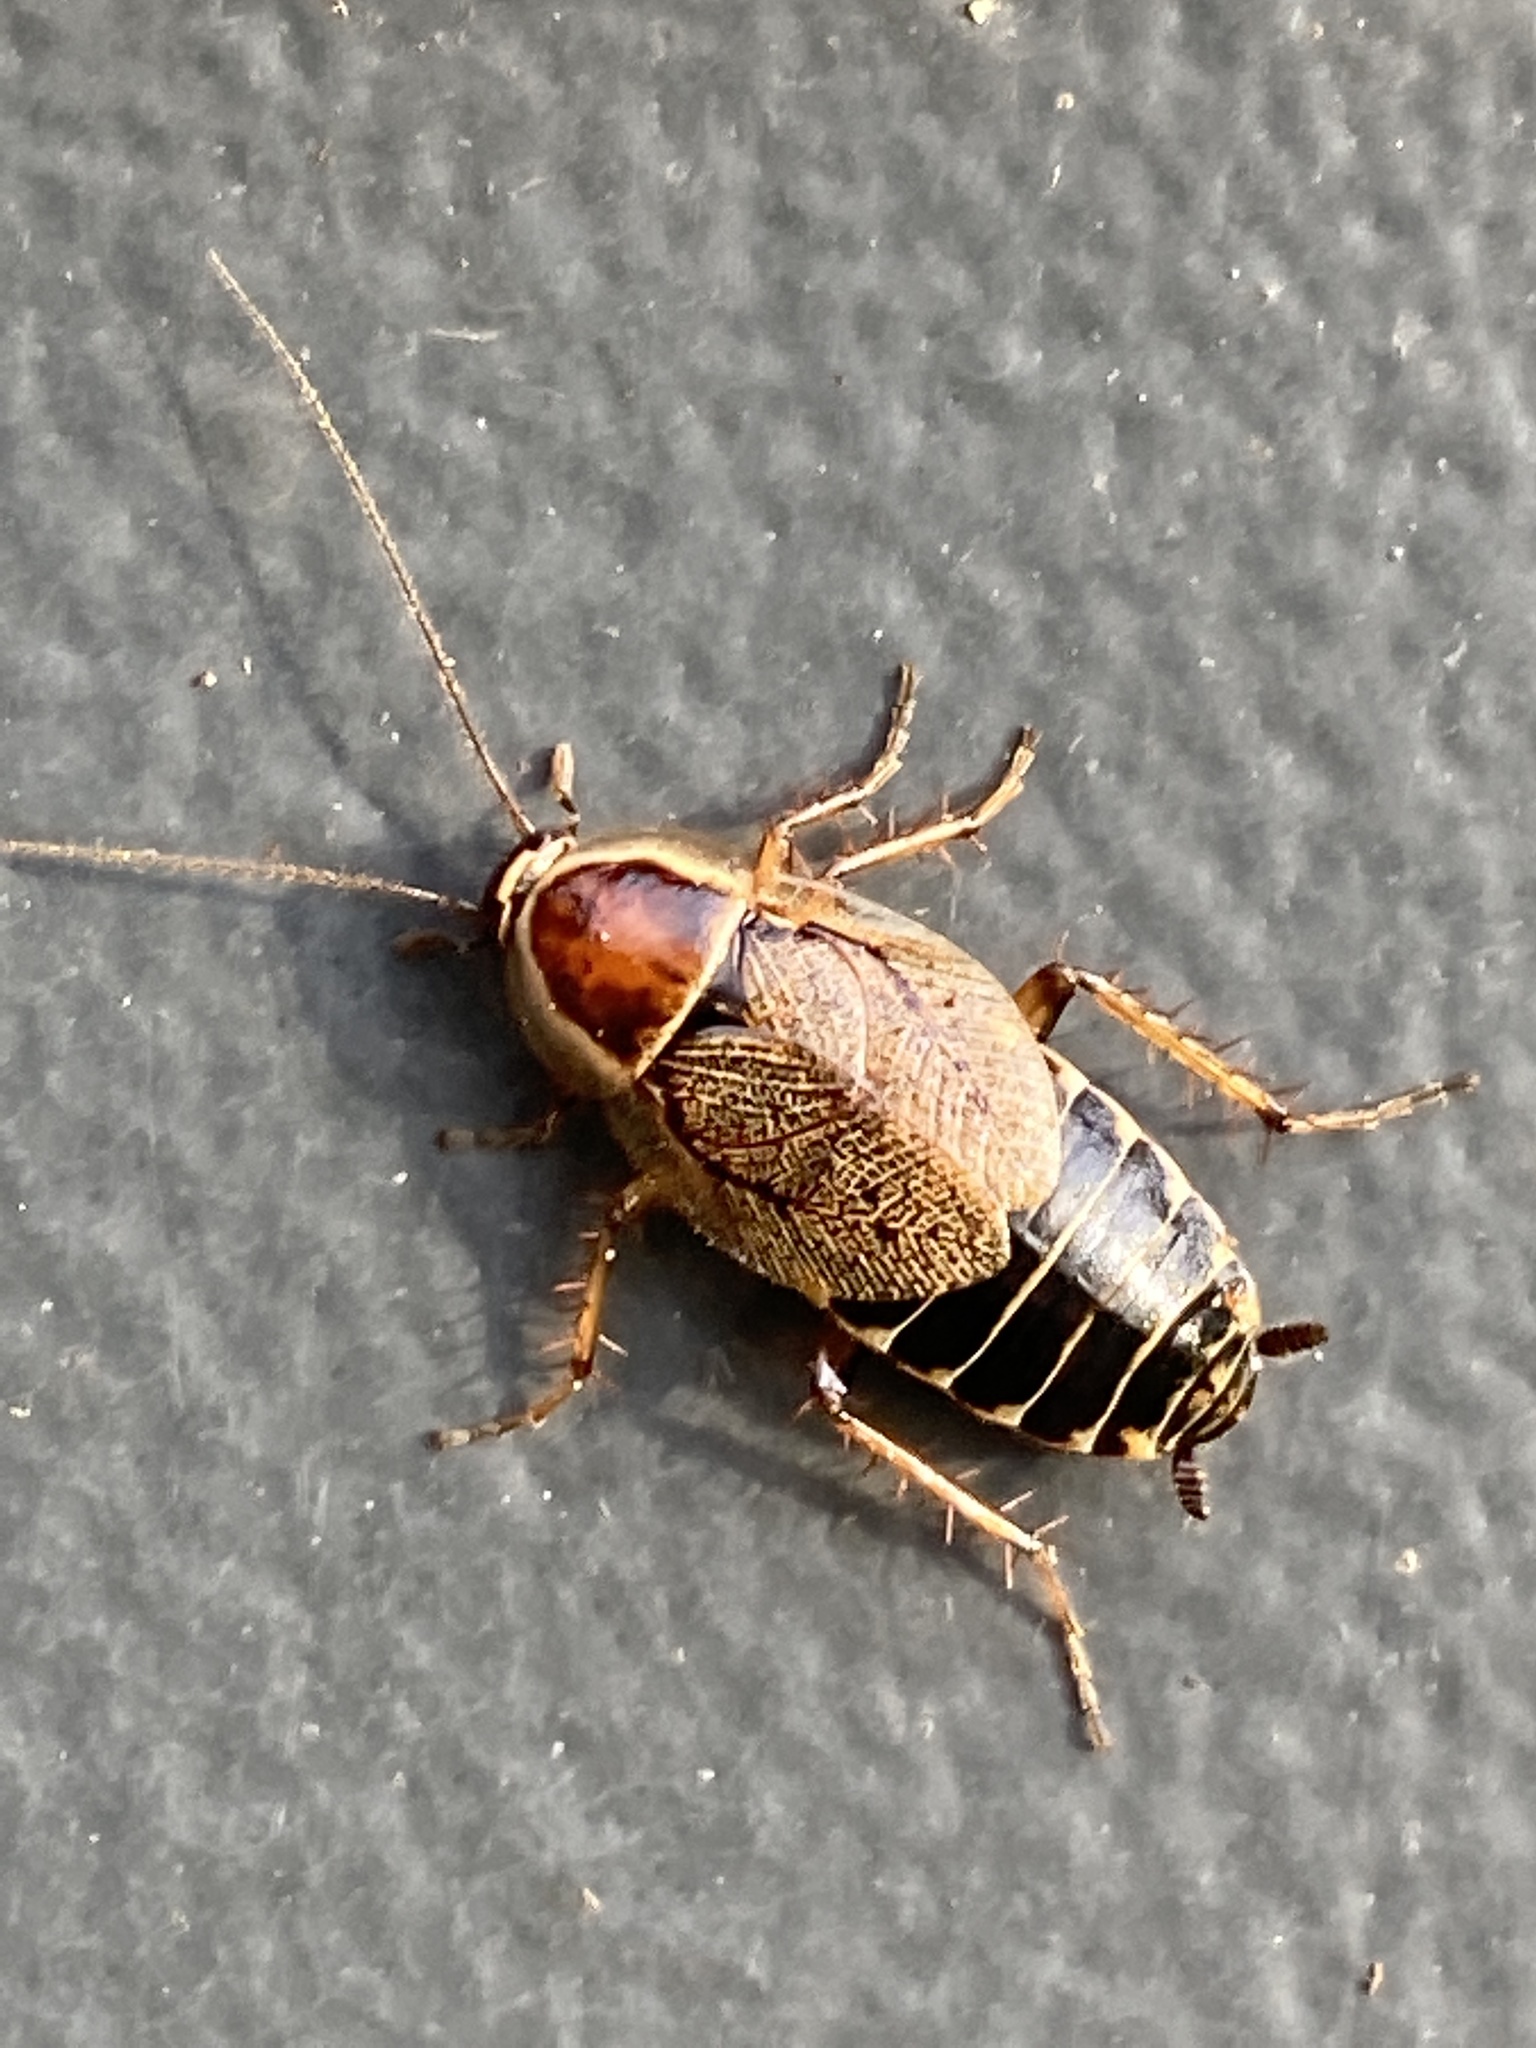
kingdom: Animalia
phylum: Arthropoda
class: Insecta
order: Blattodea
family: Ectobiidae
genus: Ectobius
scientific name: Ectobius sylvestris
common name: Forest cockroach
